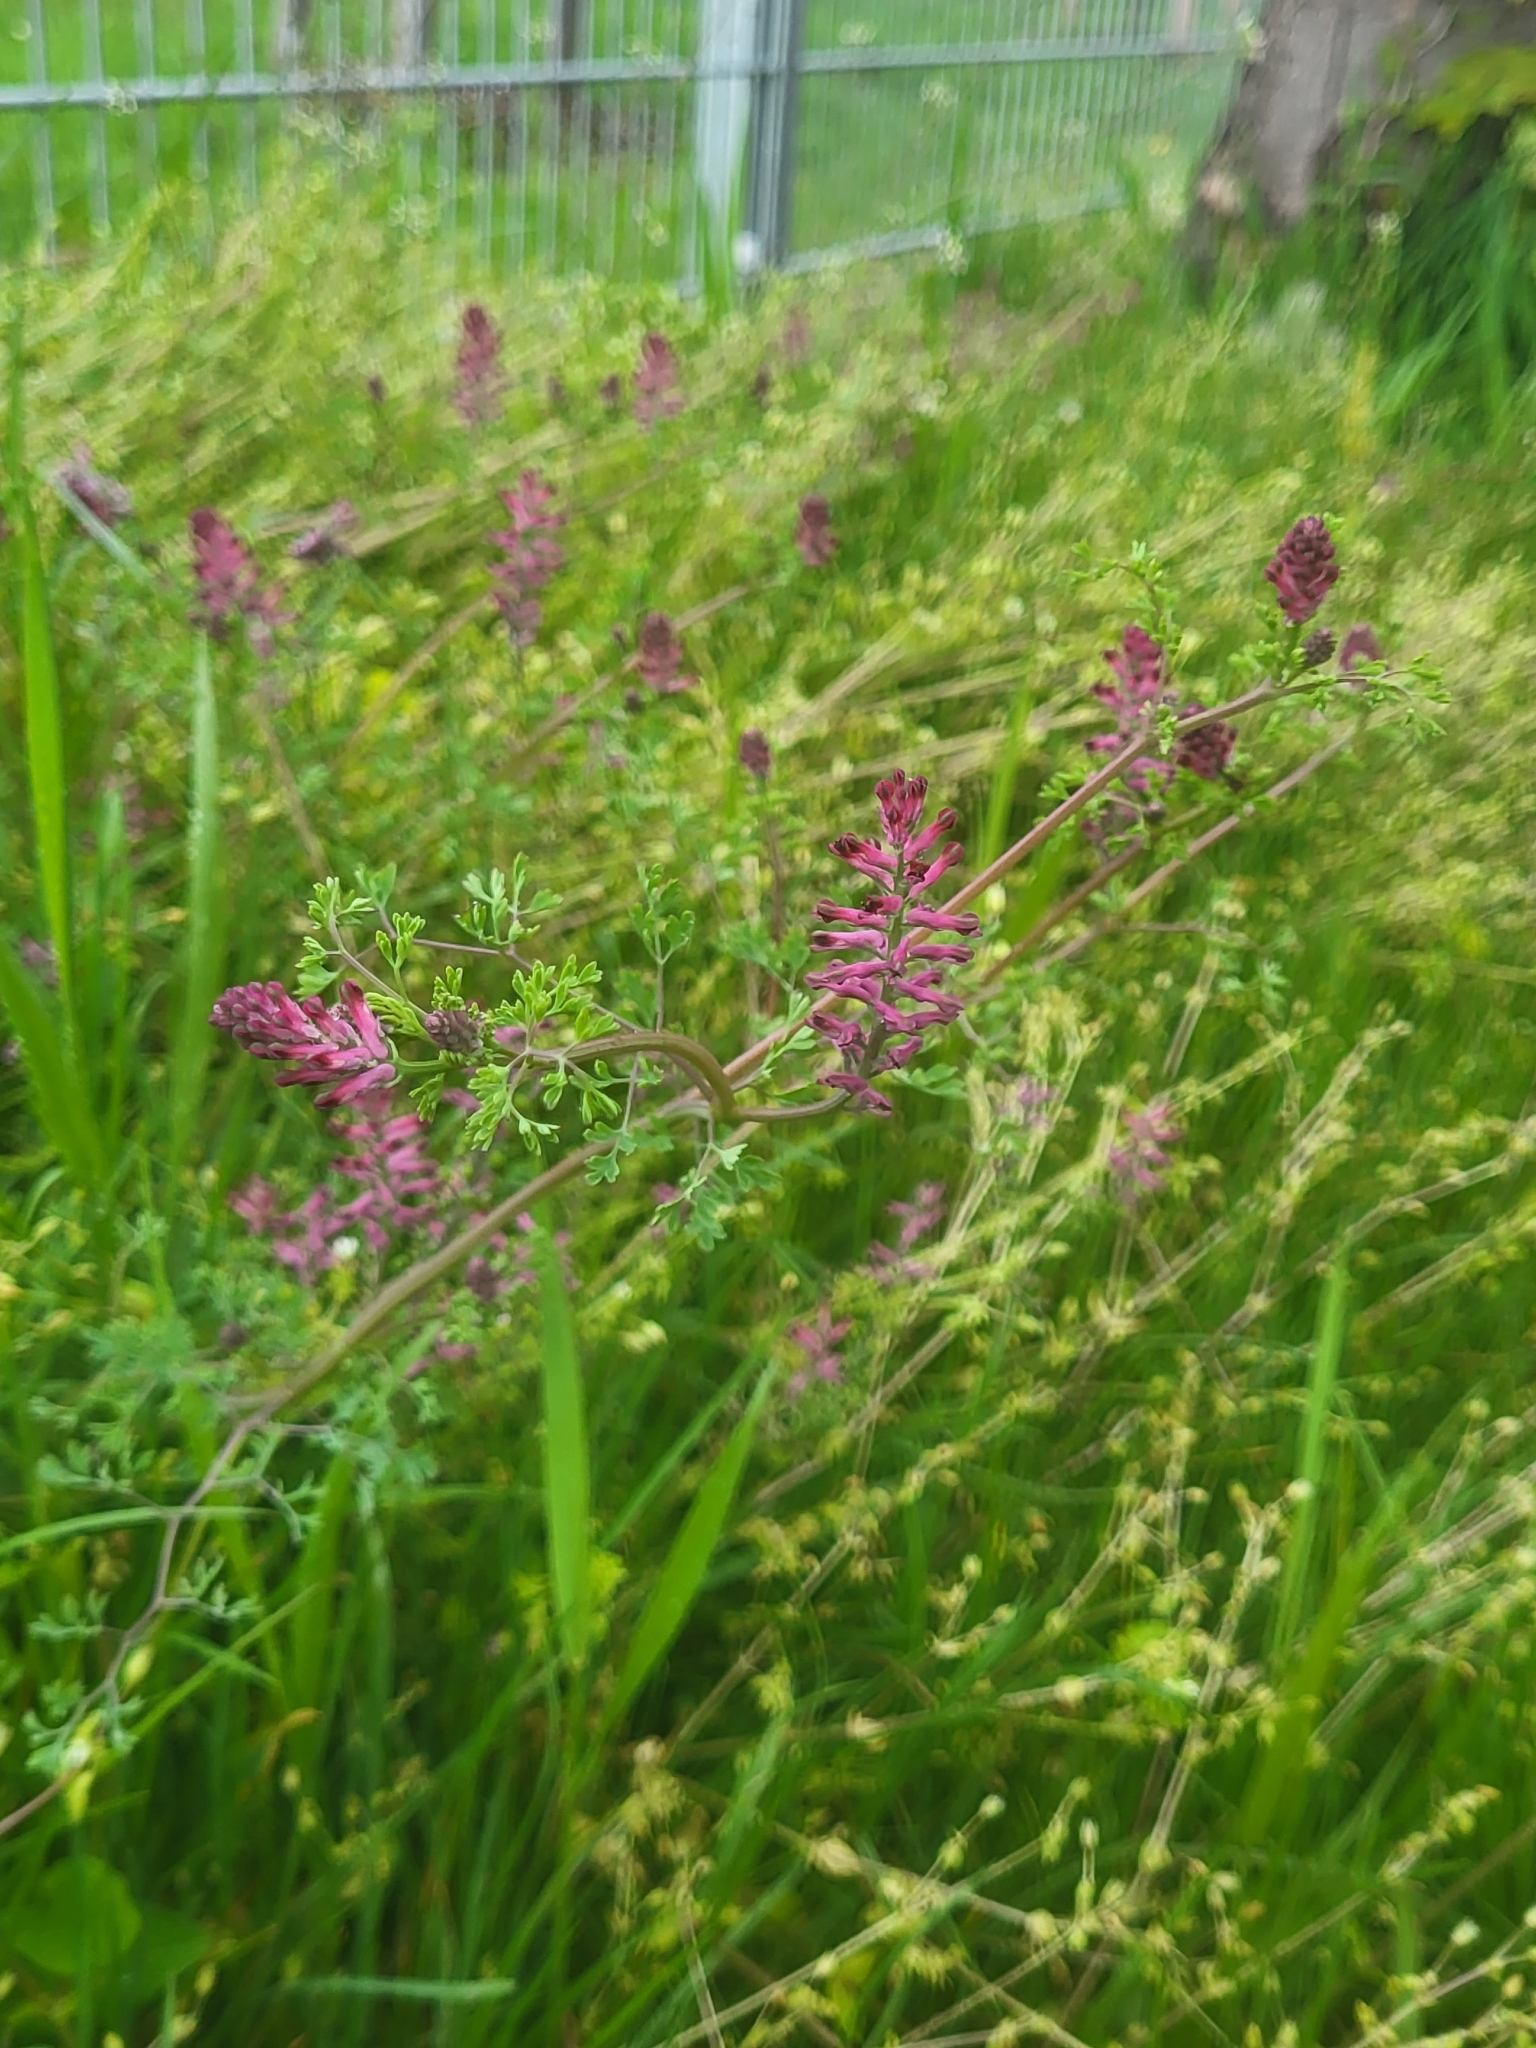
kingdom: Plantae
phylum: Tracheophyta
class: Magnoliopsida
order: Ranunculales
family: Papaveraceae
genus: Fumaria
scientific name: Fumaria officinalis
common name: Common fumitory
